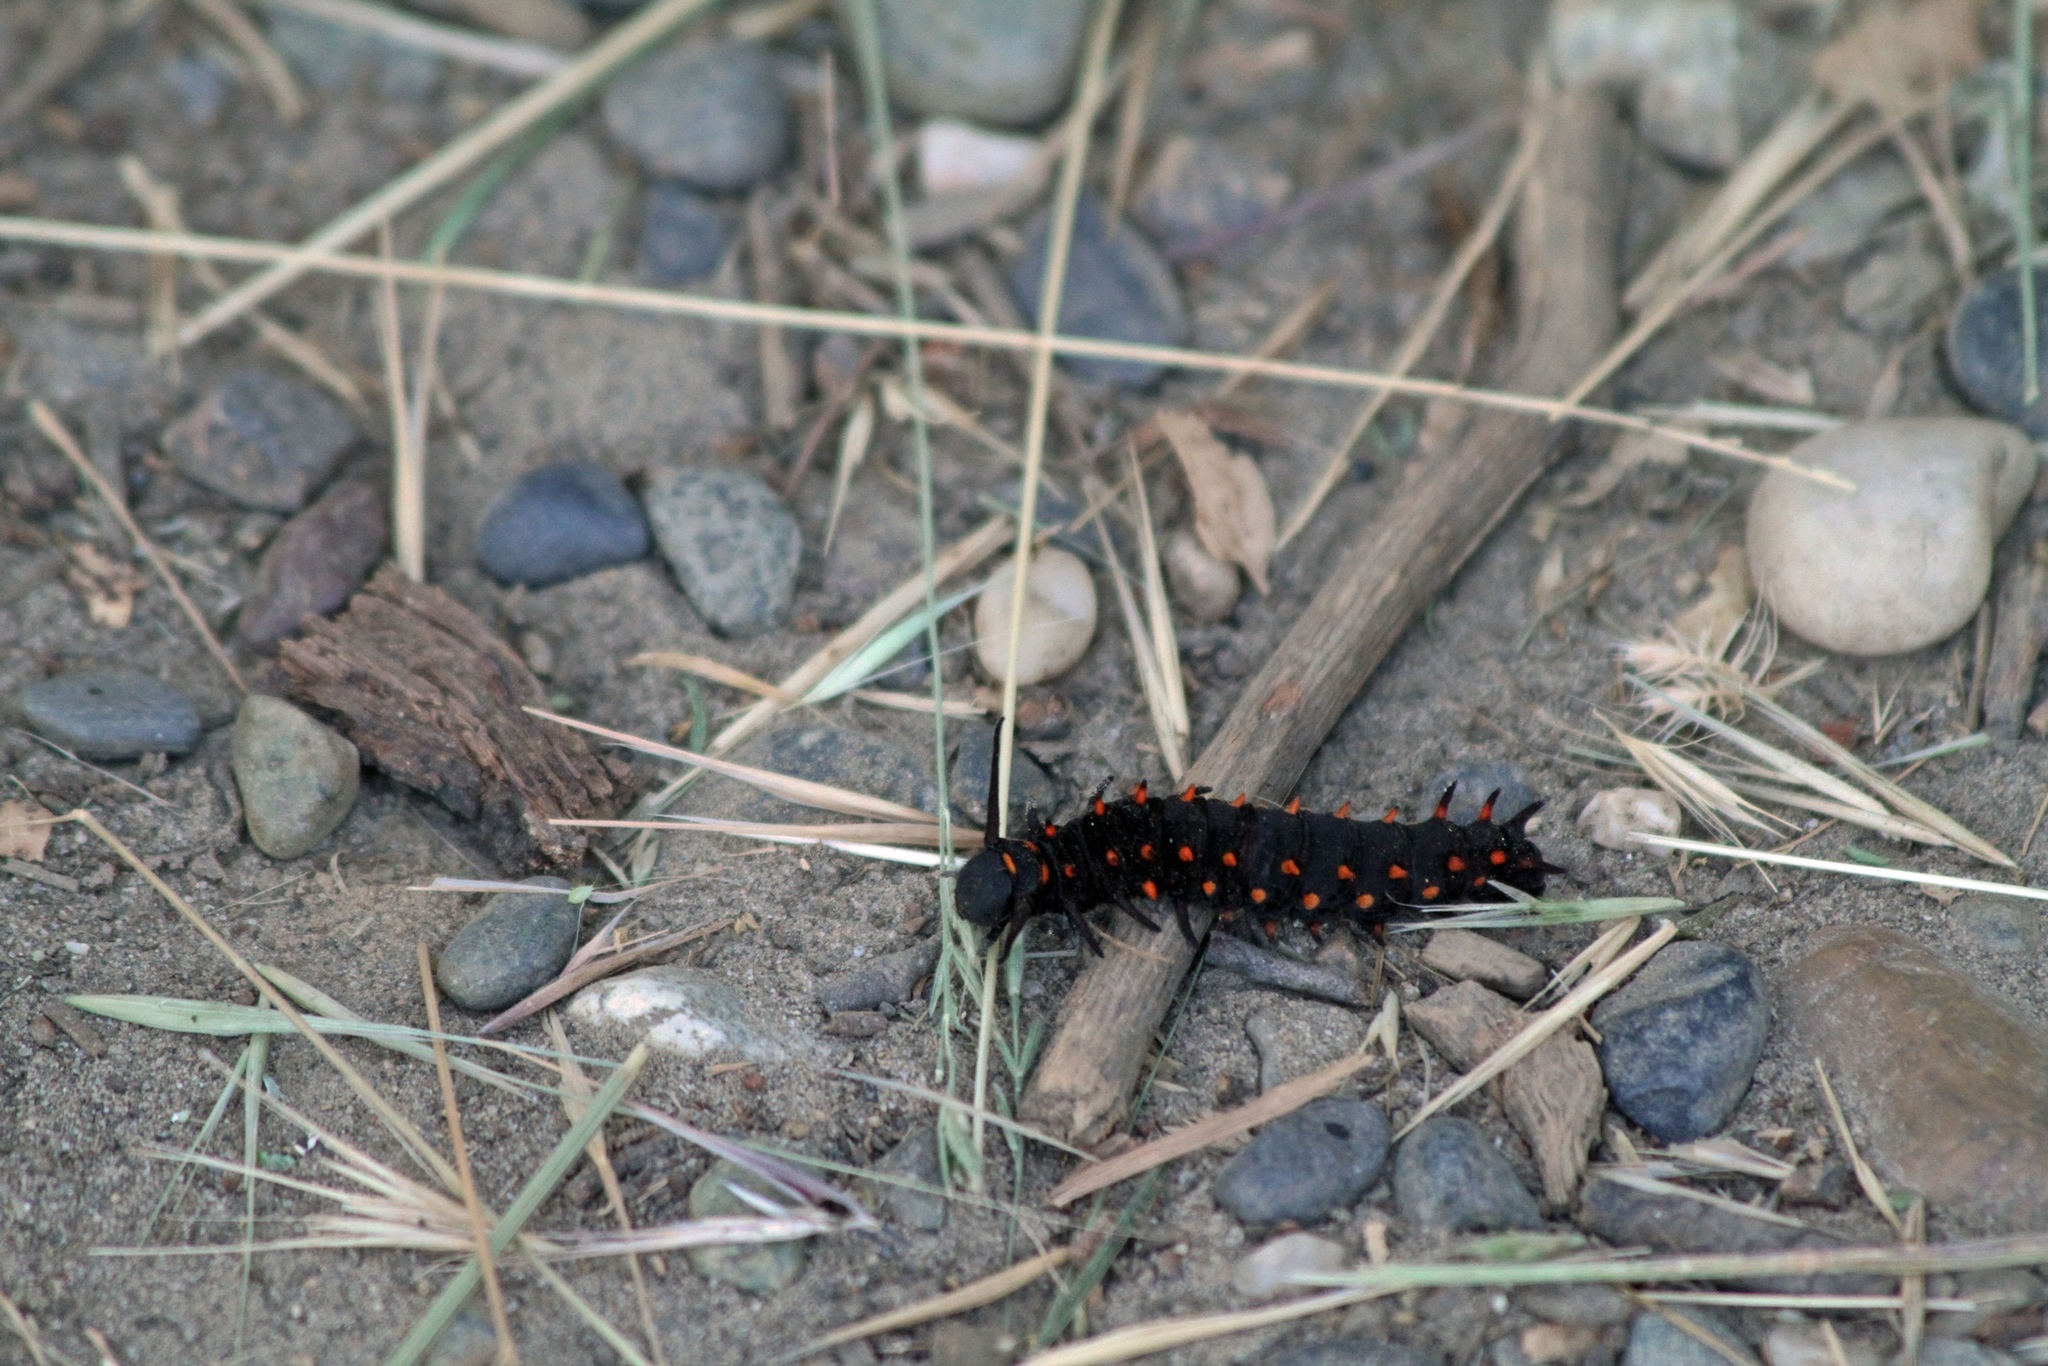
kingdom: Animalia
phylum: Arthropoda
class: Insecta
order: Lepidoptera
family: Papilionidae
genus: Battus
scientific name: Battus philenor
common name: Pipevine swallowtail
